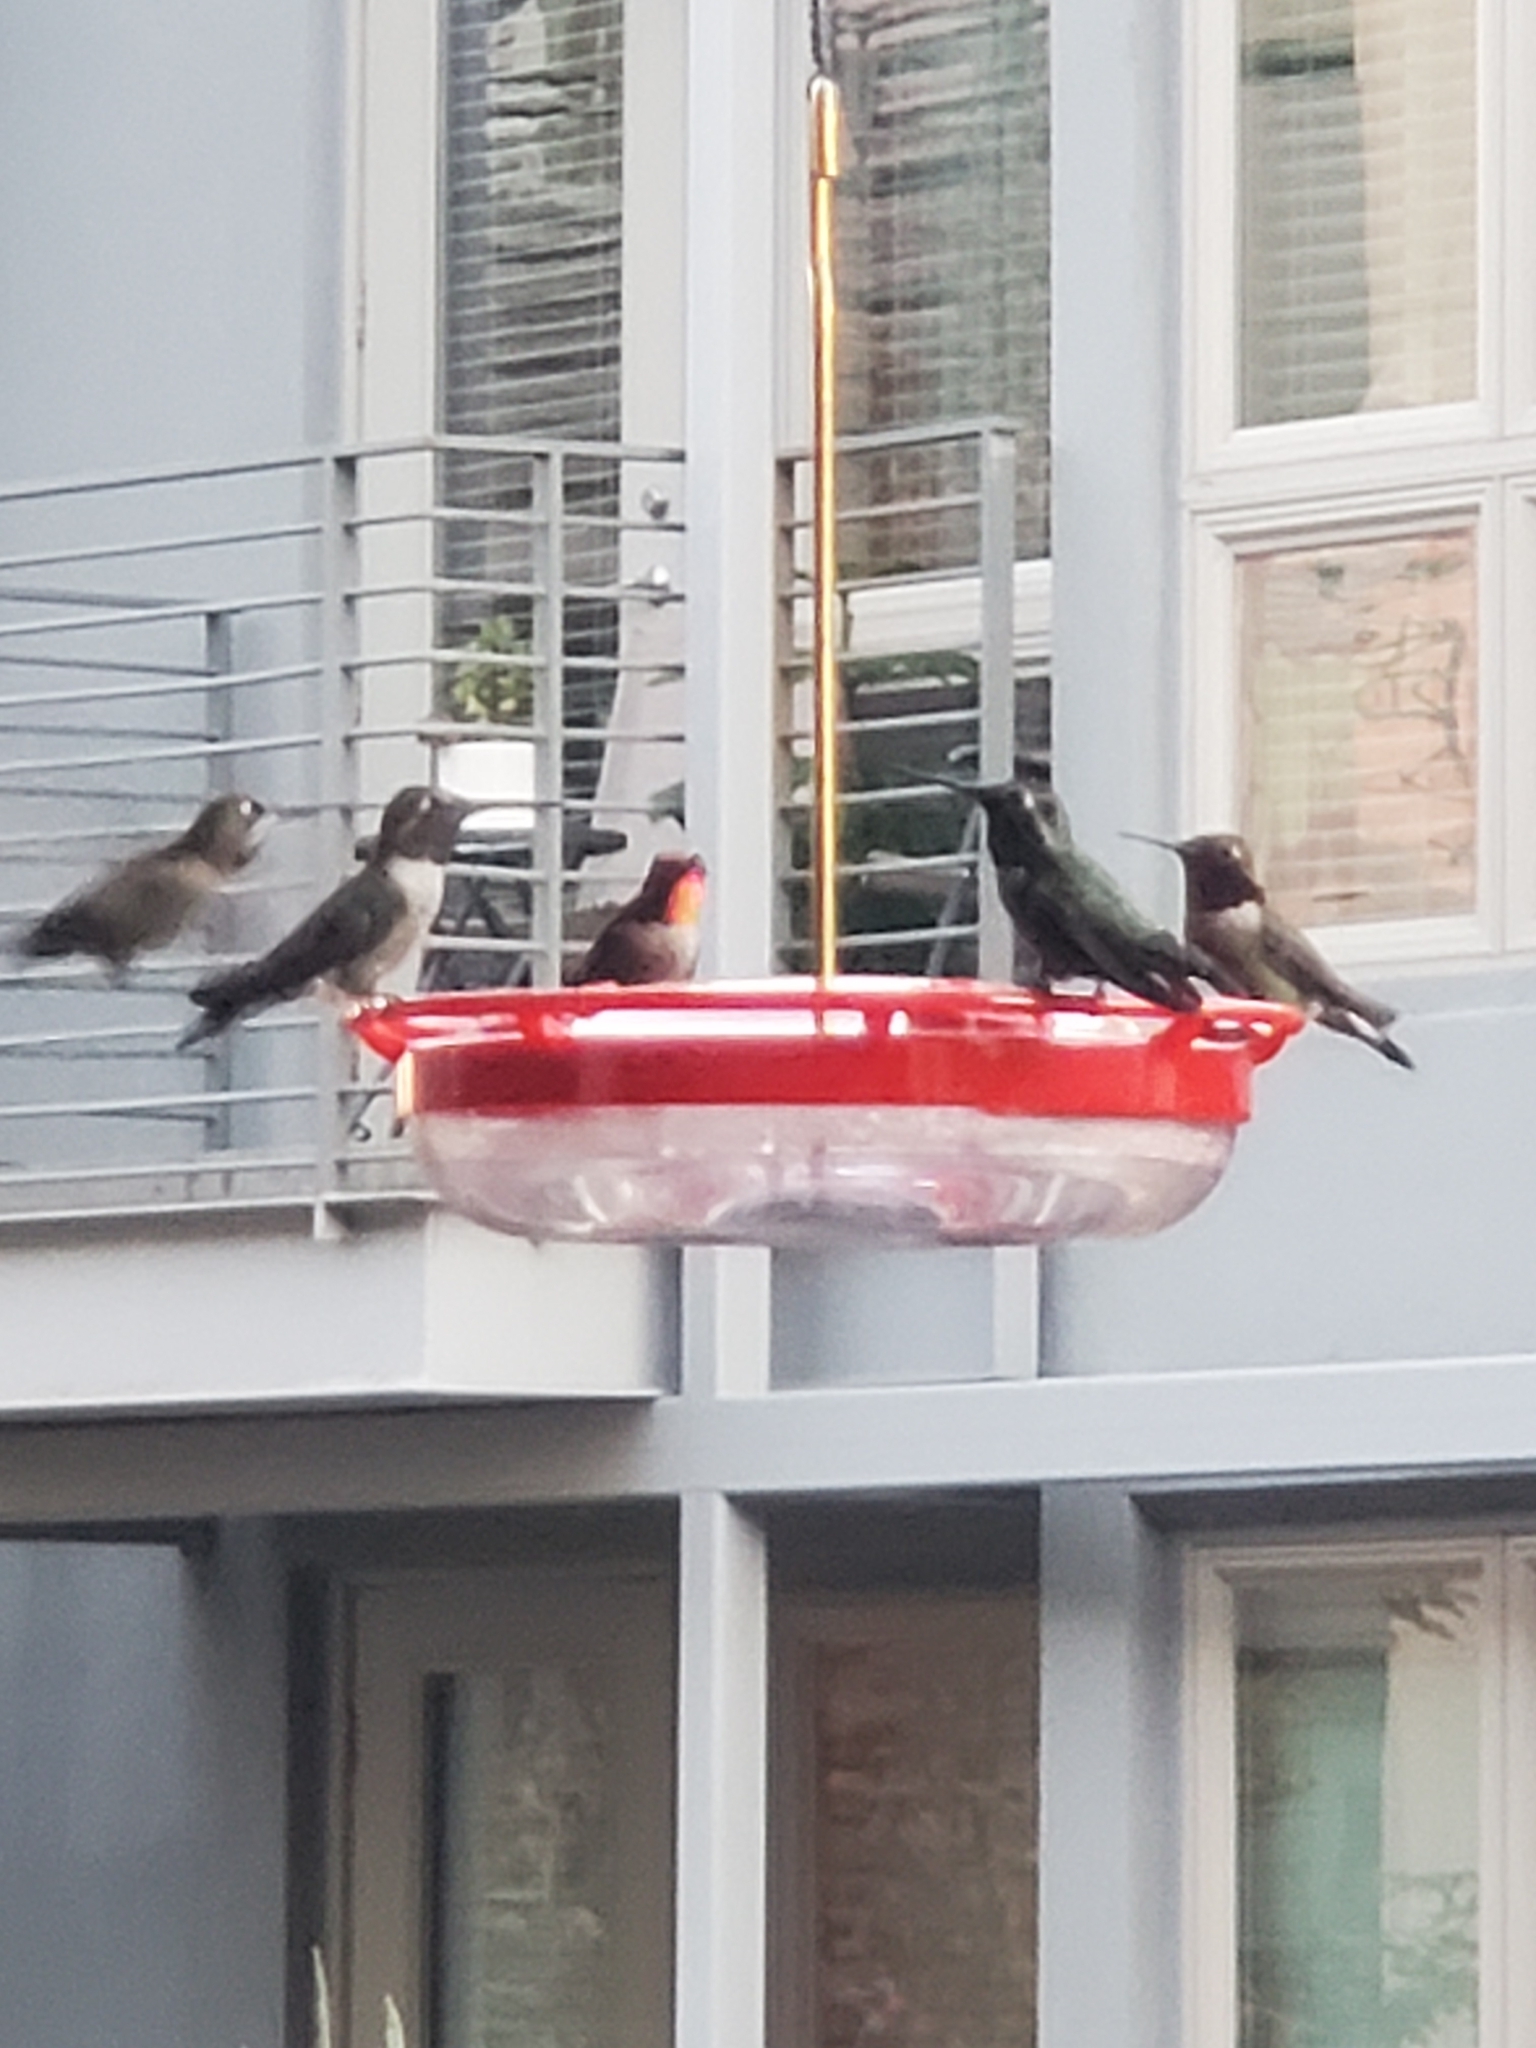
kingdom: Animalia
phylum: Chordata
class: Aves
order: Apodiformes
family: Trochilidae
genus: Calypte
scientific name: Calypte anna
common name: Anna's hummingbird
